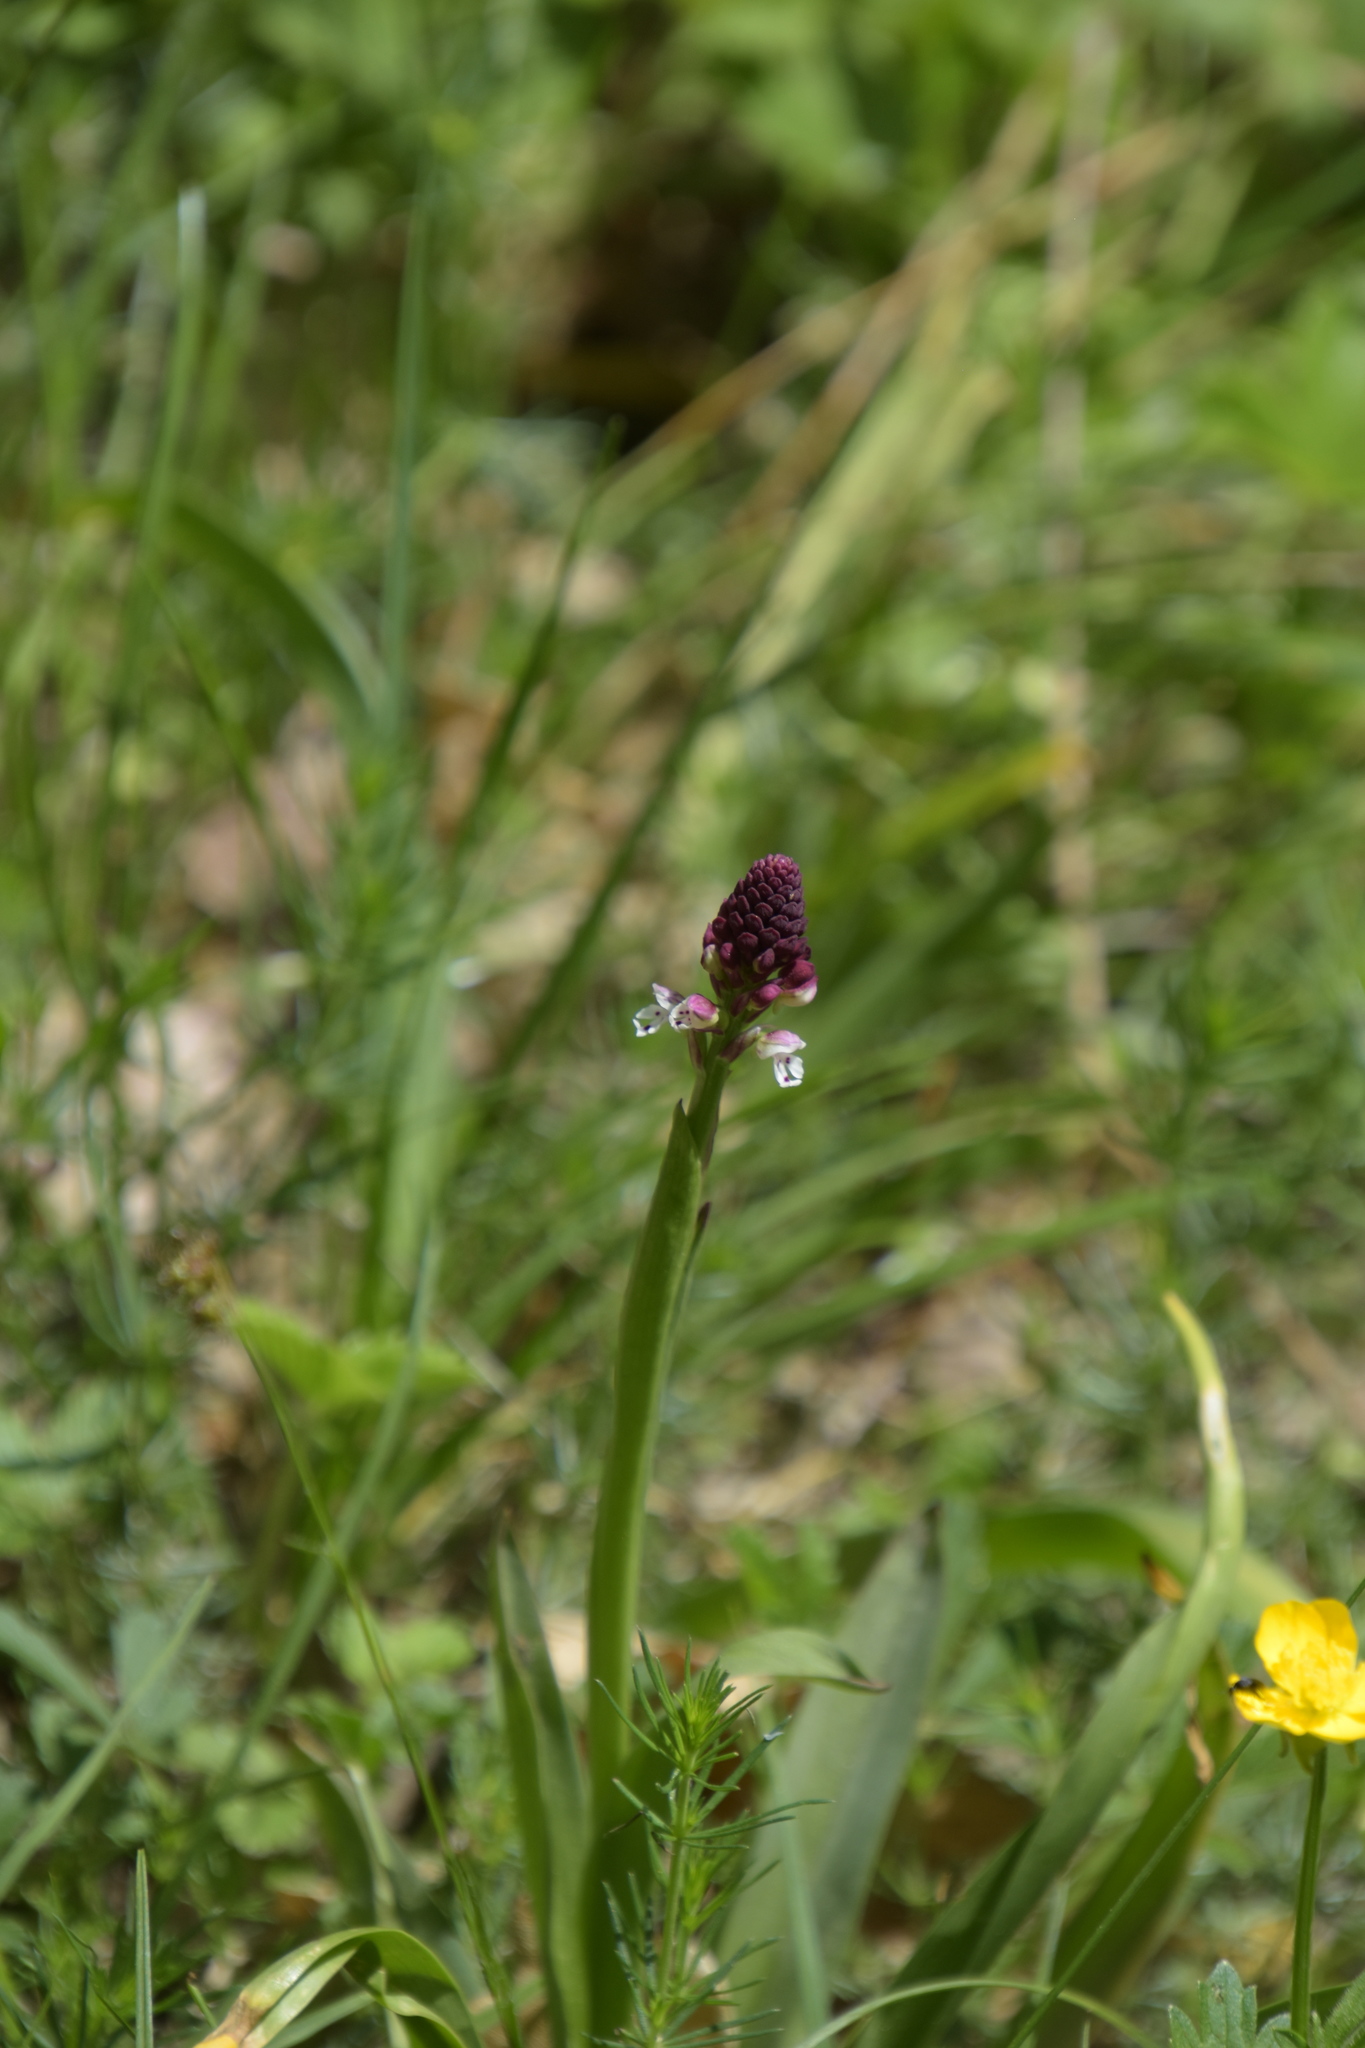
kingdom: Plantae
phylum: Tracheophyta
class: Liliopsida
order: Asparagales
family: Orchidaceae
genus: Neotinea
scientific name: Neotinea ustulata
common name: Burnt orchid
